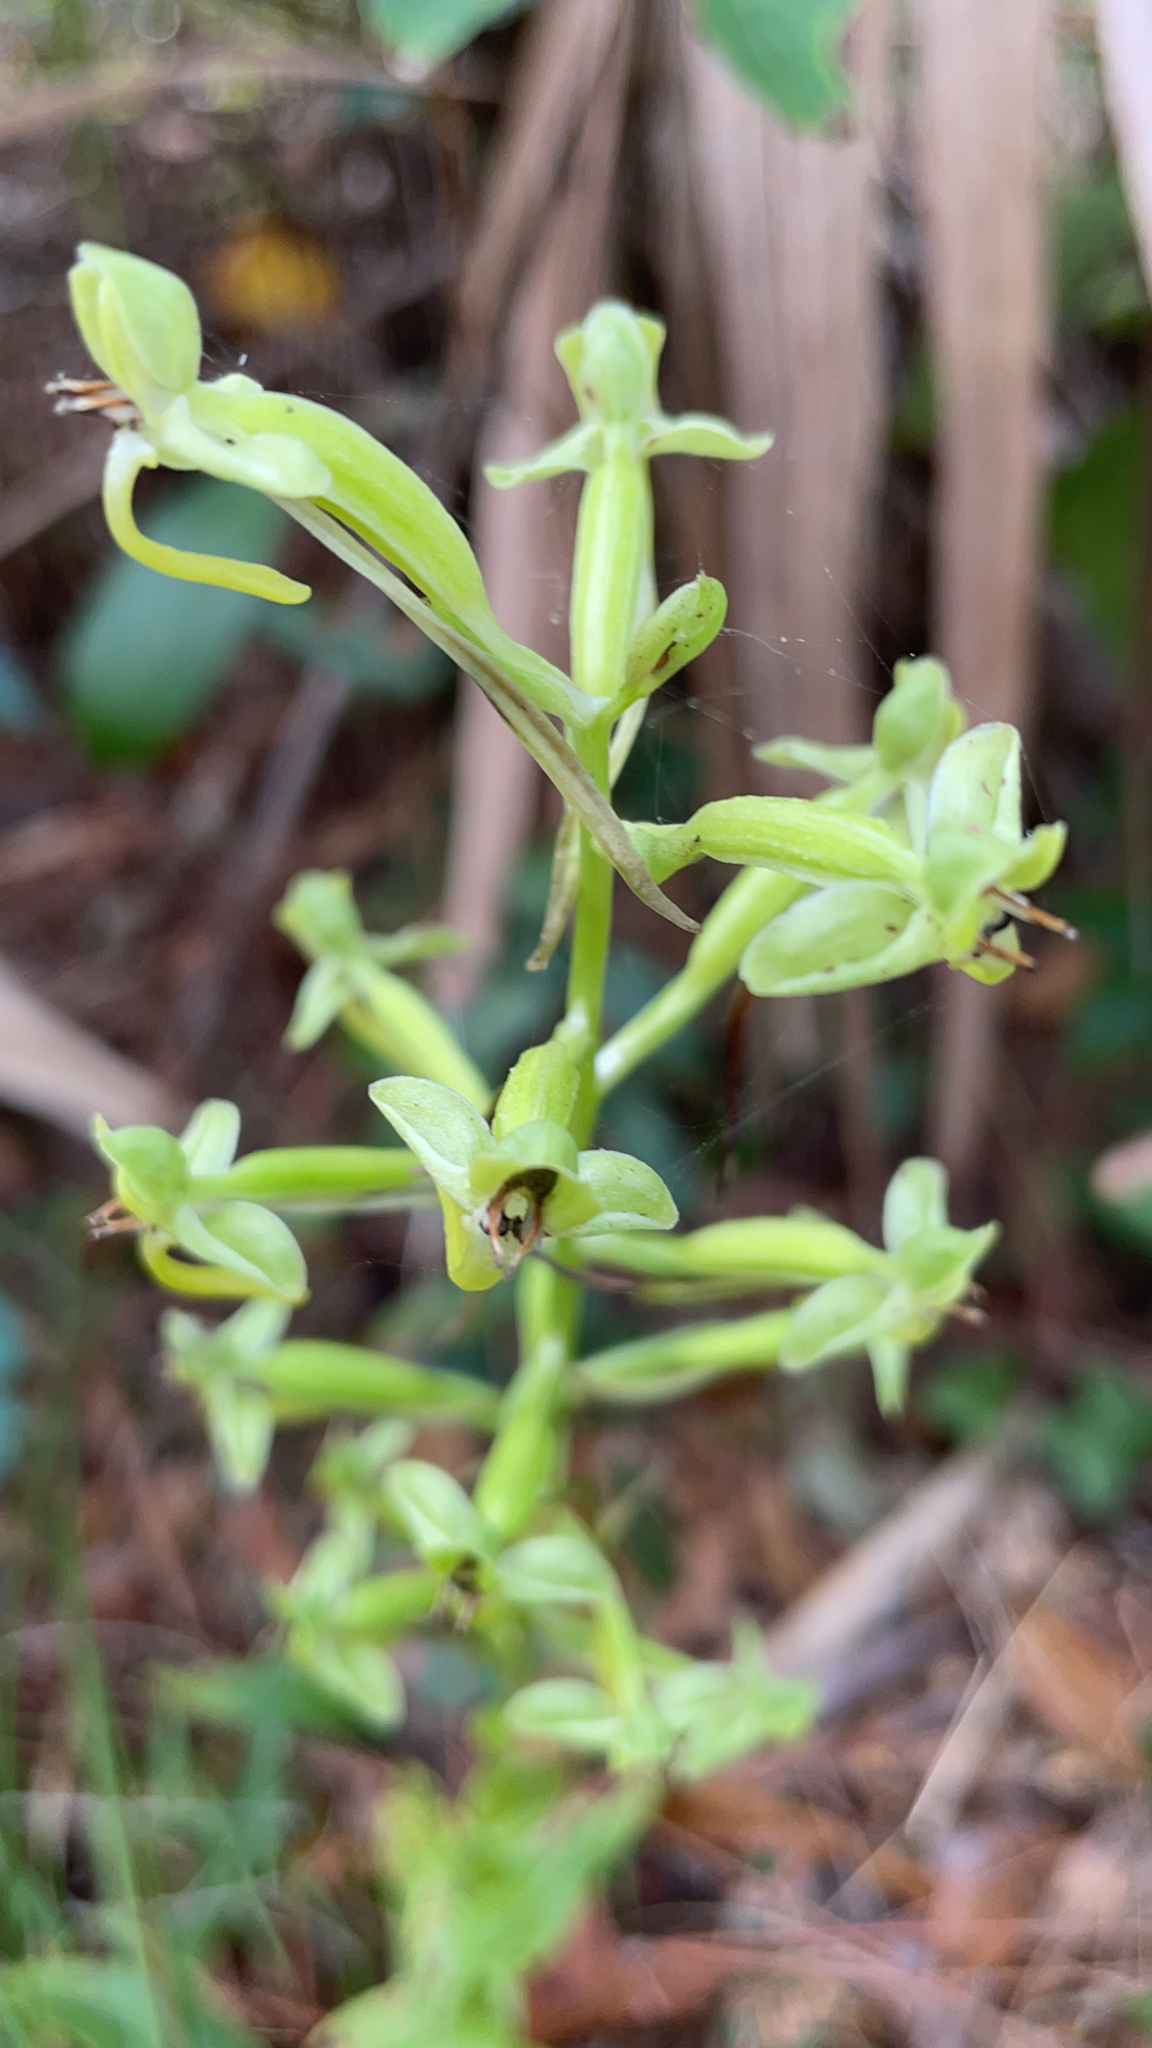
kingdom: Plantae
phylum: Tracheophyta
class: Liliopsida
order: Asparagales
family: Orchidaceae
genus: Habenaria
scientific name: Habenaria floribunda
